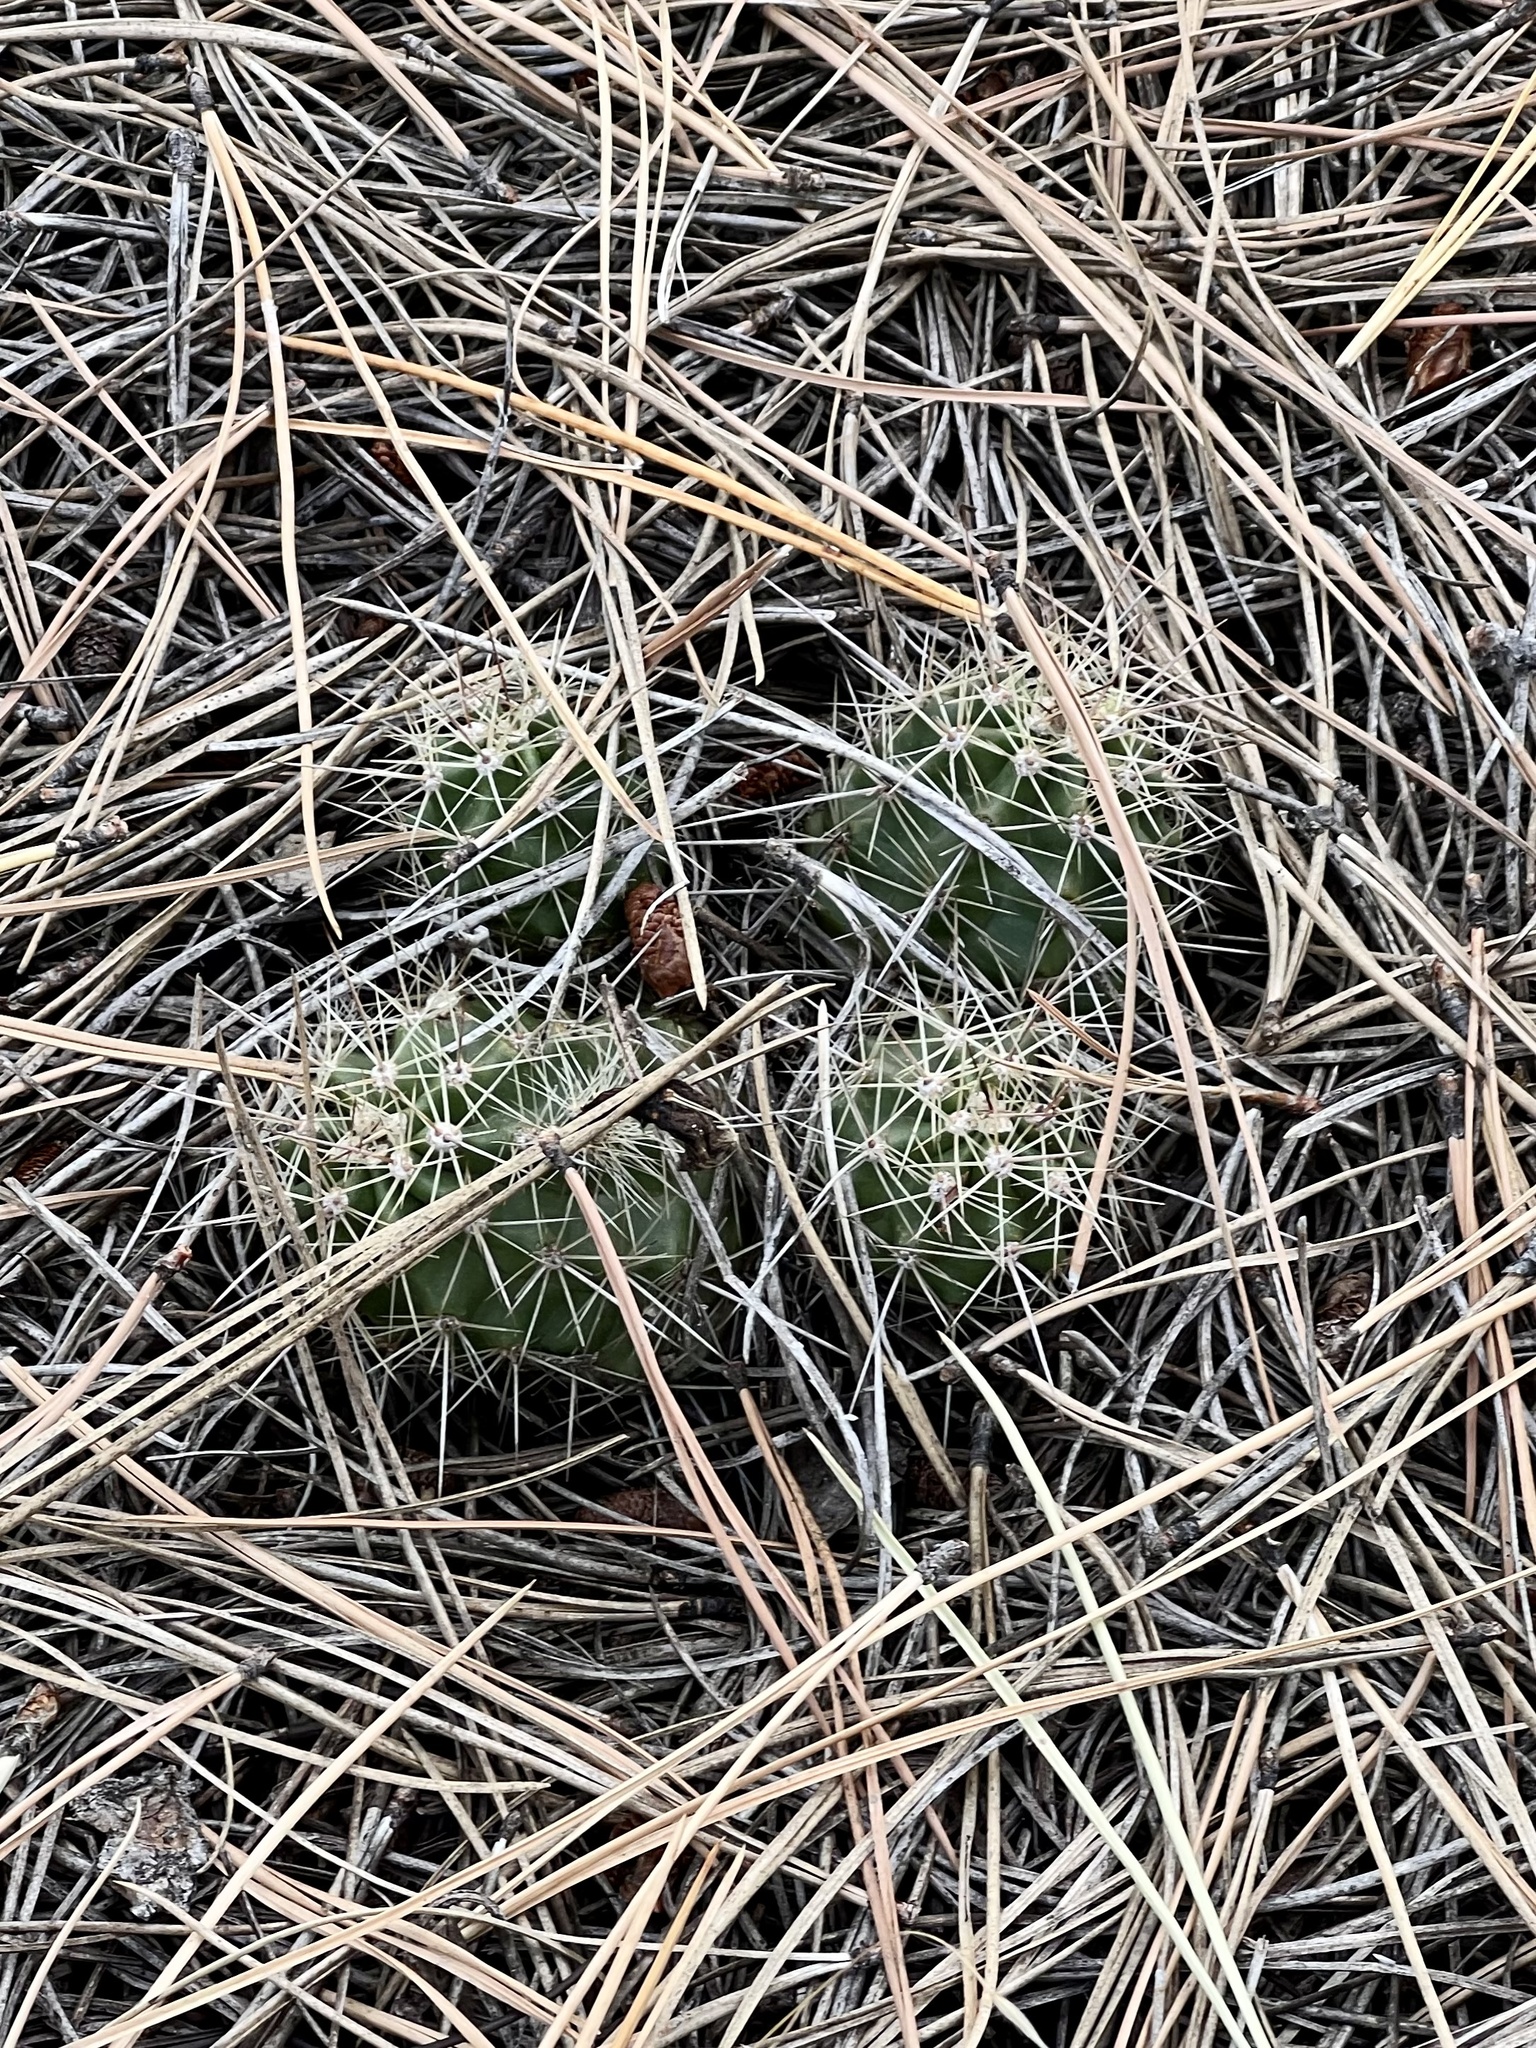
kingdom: Plantae
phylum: Tracheophyta
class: Magnoliopsida
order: Caryophyllales
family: Cactaceae
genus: Echinocereus
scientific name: Echinocereus bakeri
